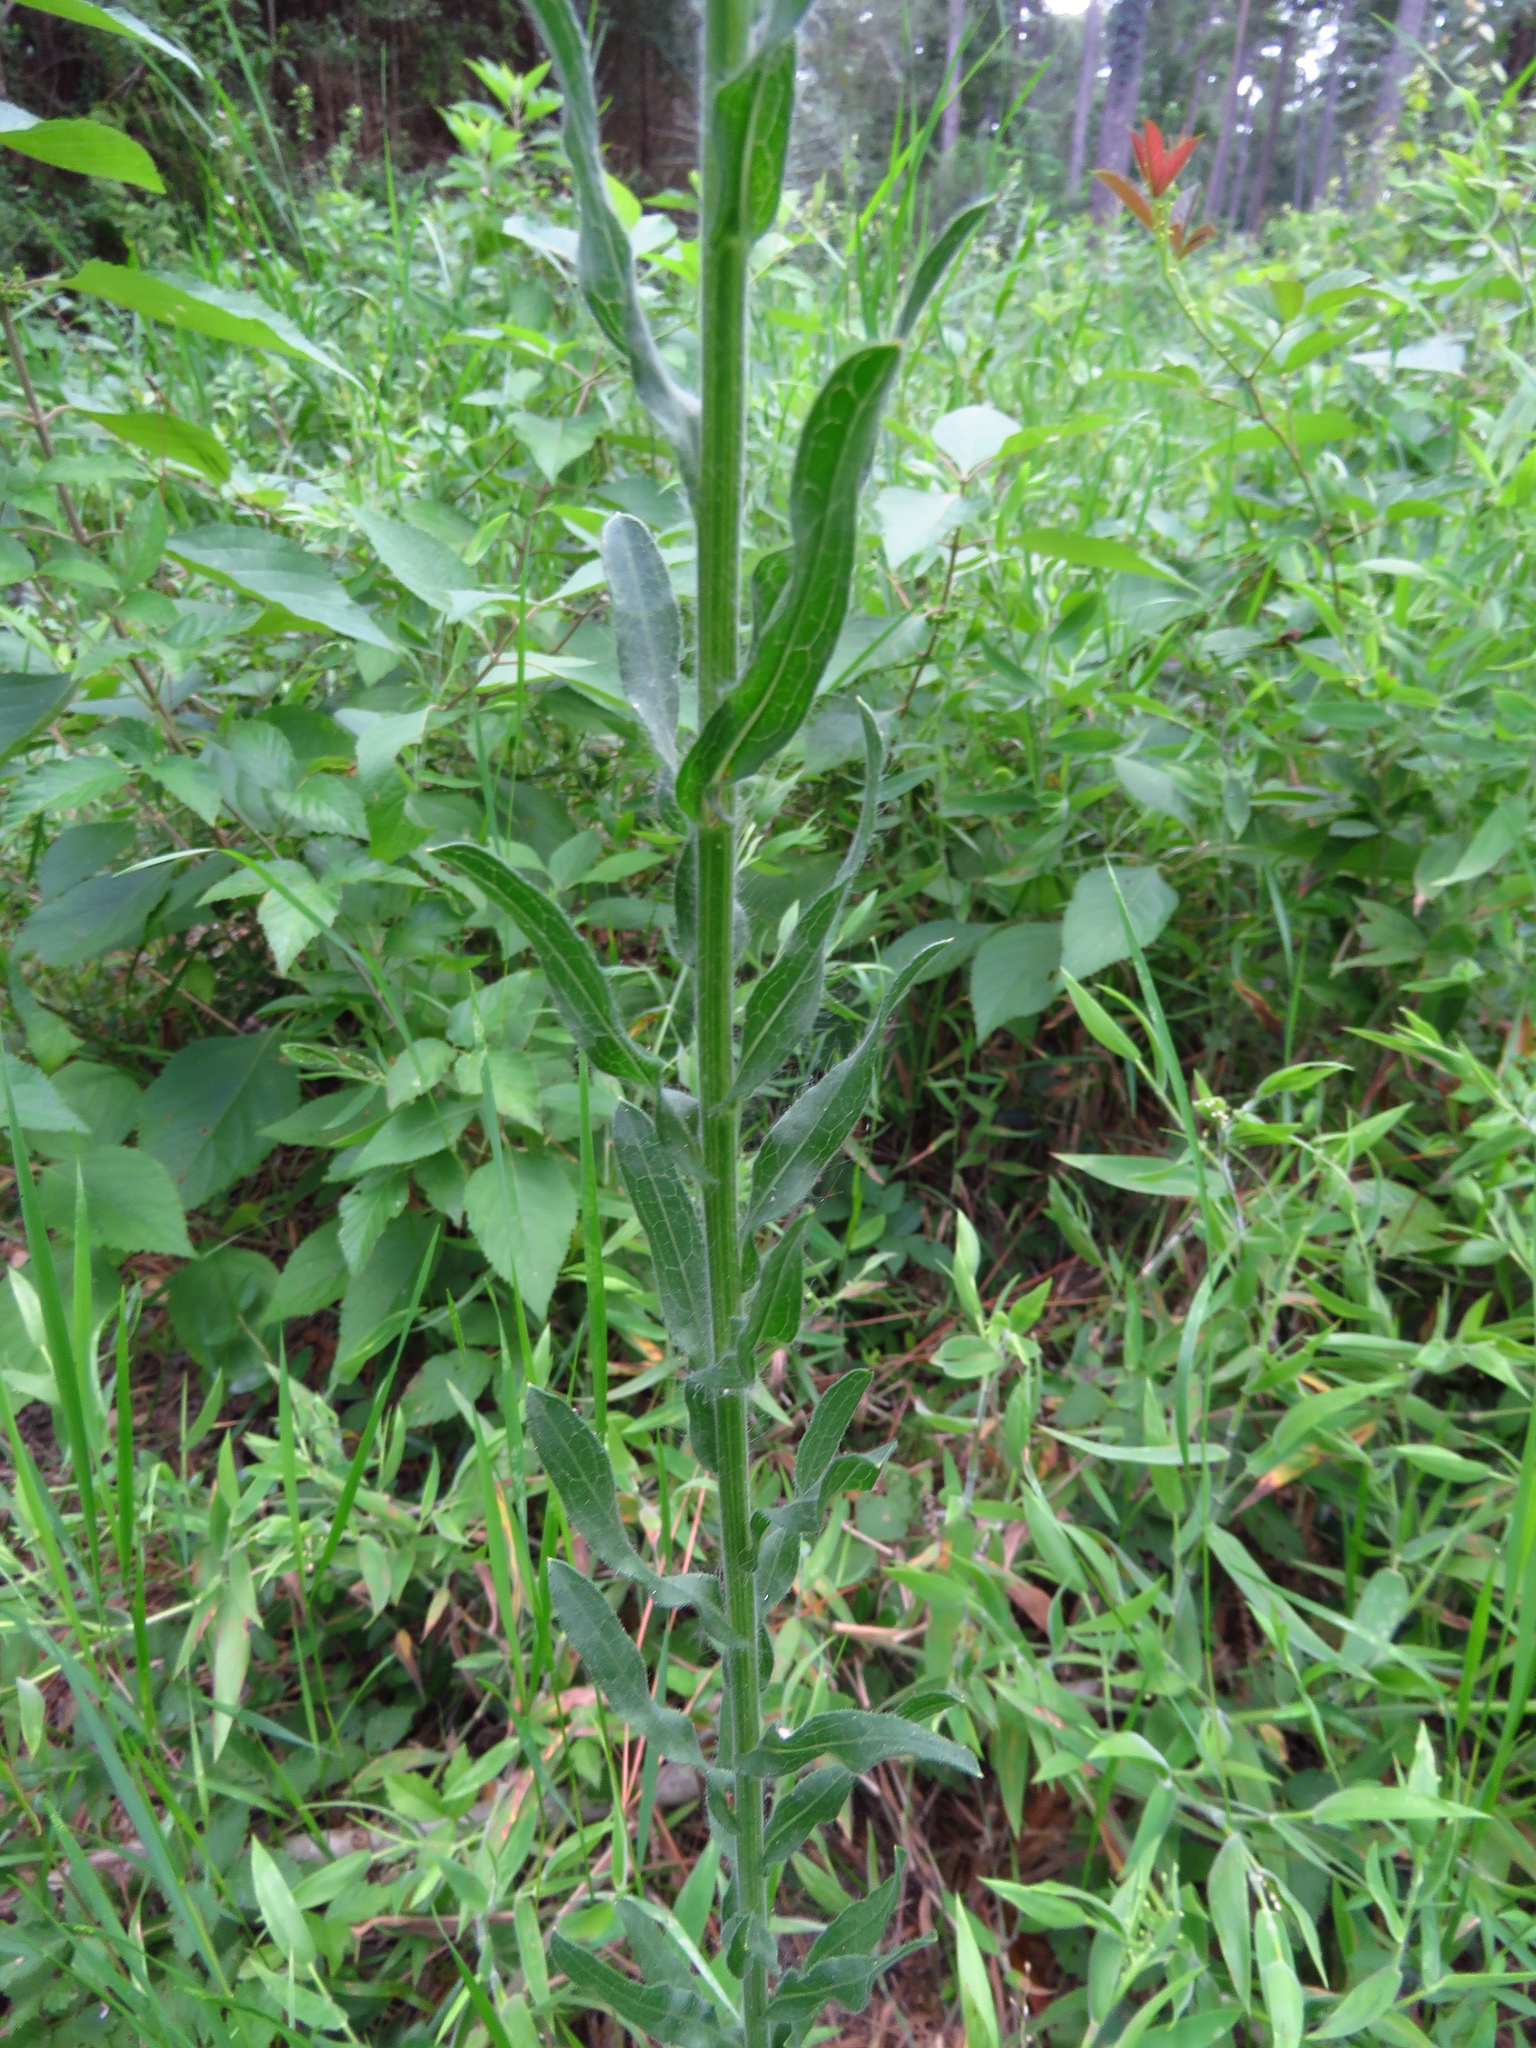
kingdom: Plantae
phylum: Tracheophyta
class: Magnoliopsida
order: Asterales
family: Asteraceae
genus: Bradburia
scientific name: Bradburia pilosa
